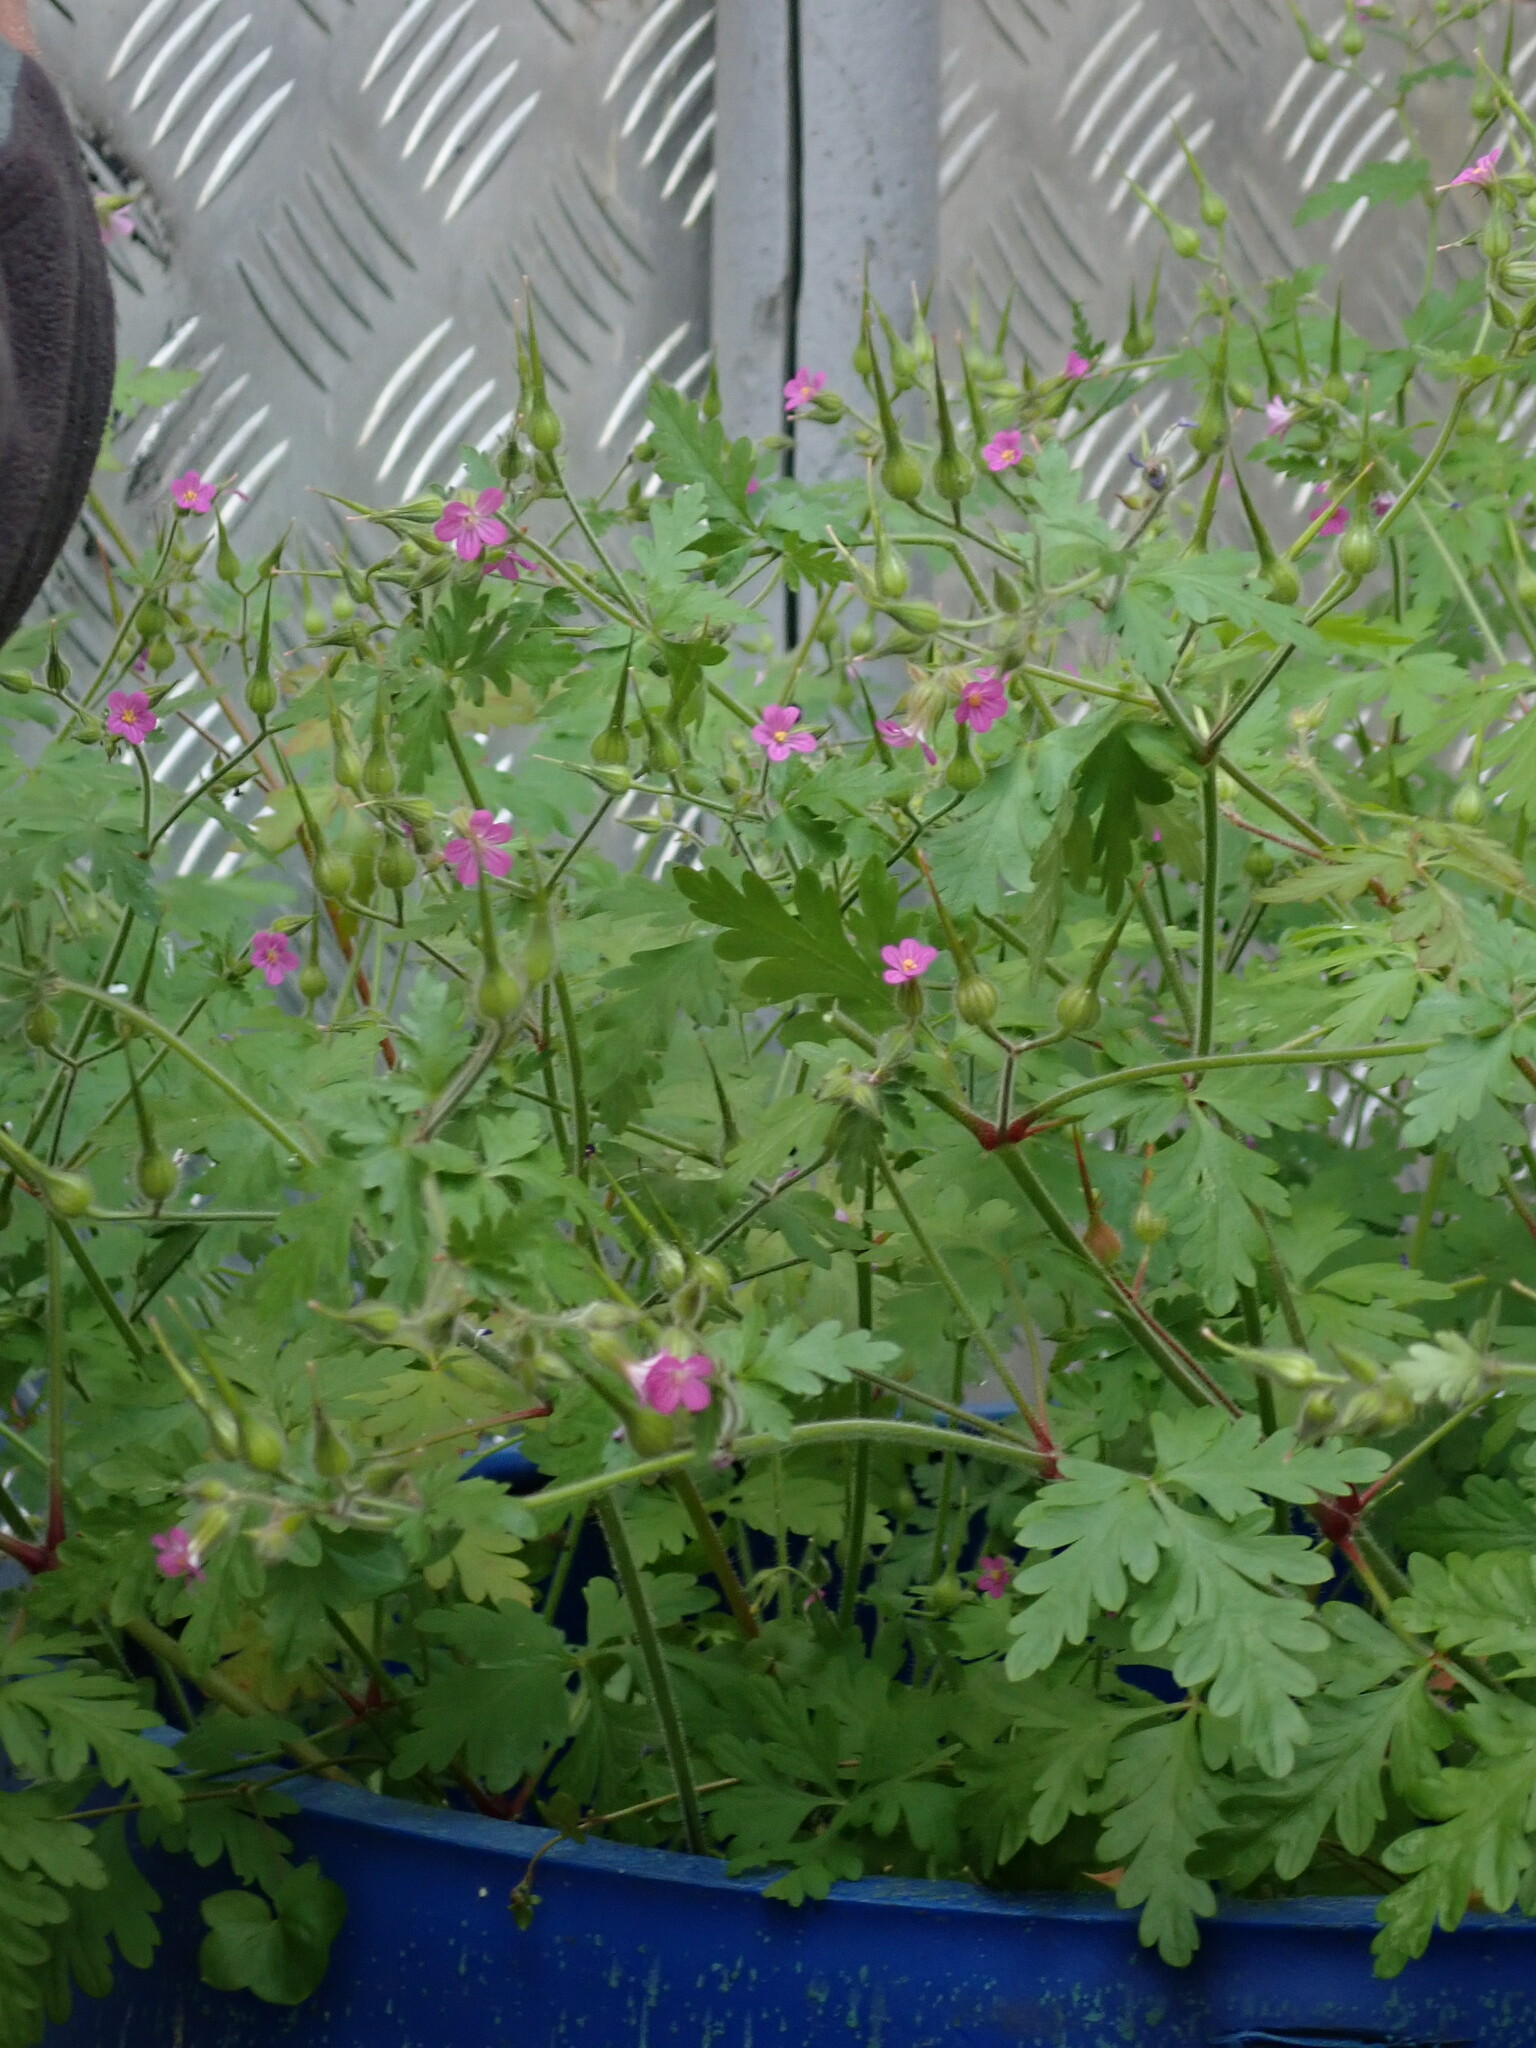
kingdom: Plantae
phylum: Tracheophyta
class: Magnoliopsida
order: Geraniales
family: Geraniaceae
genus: Geranium
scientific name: Geranium purpureum
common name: Little-robin
